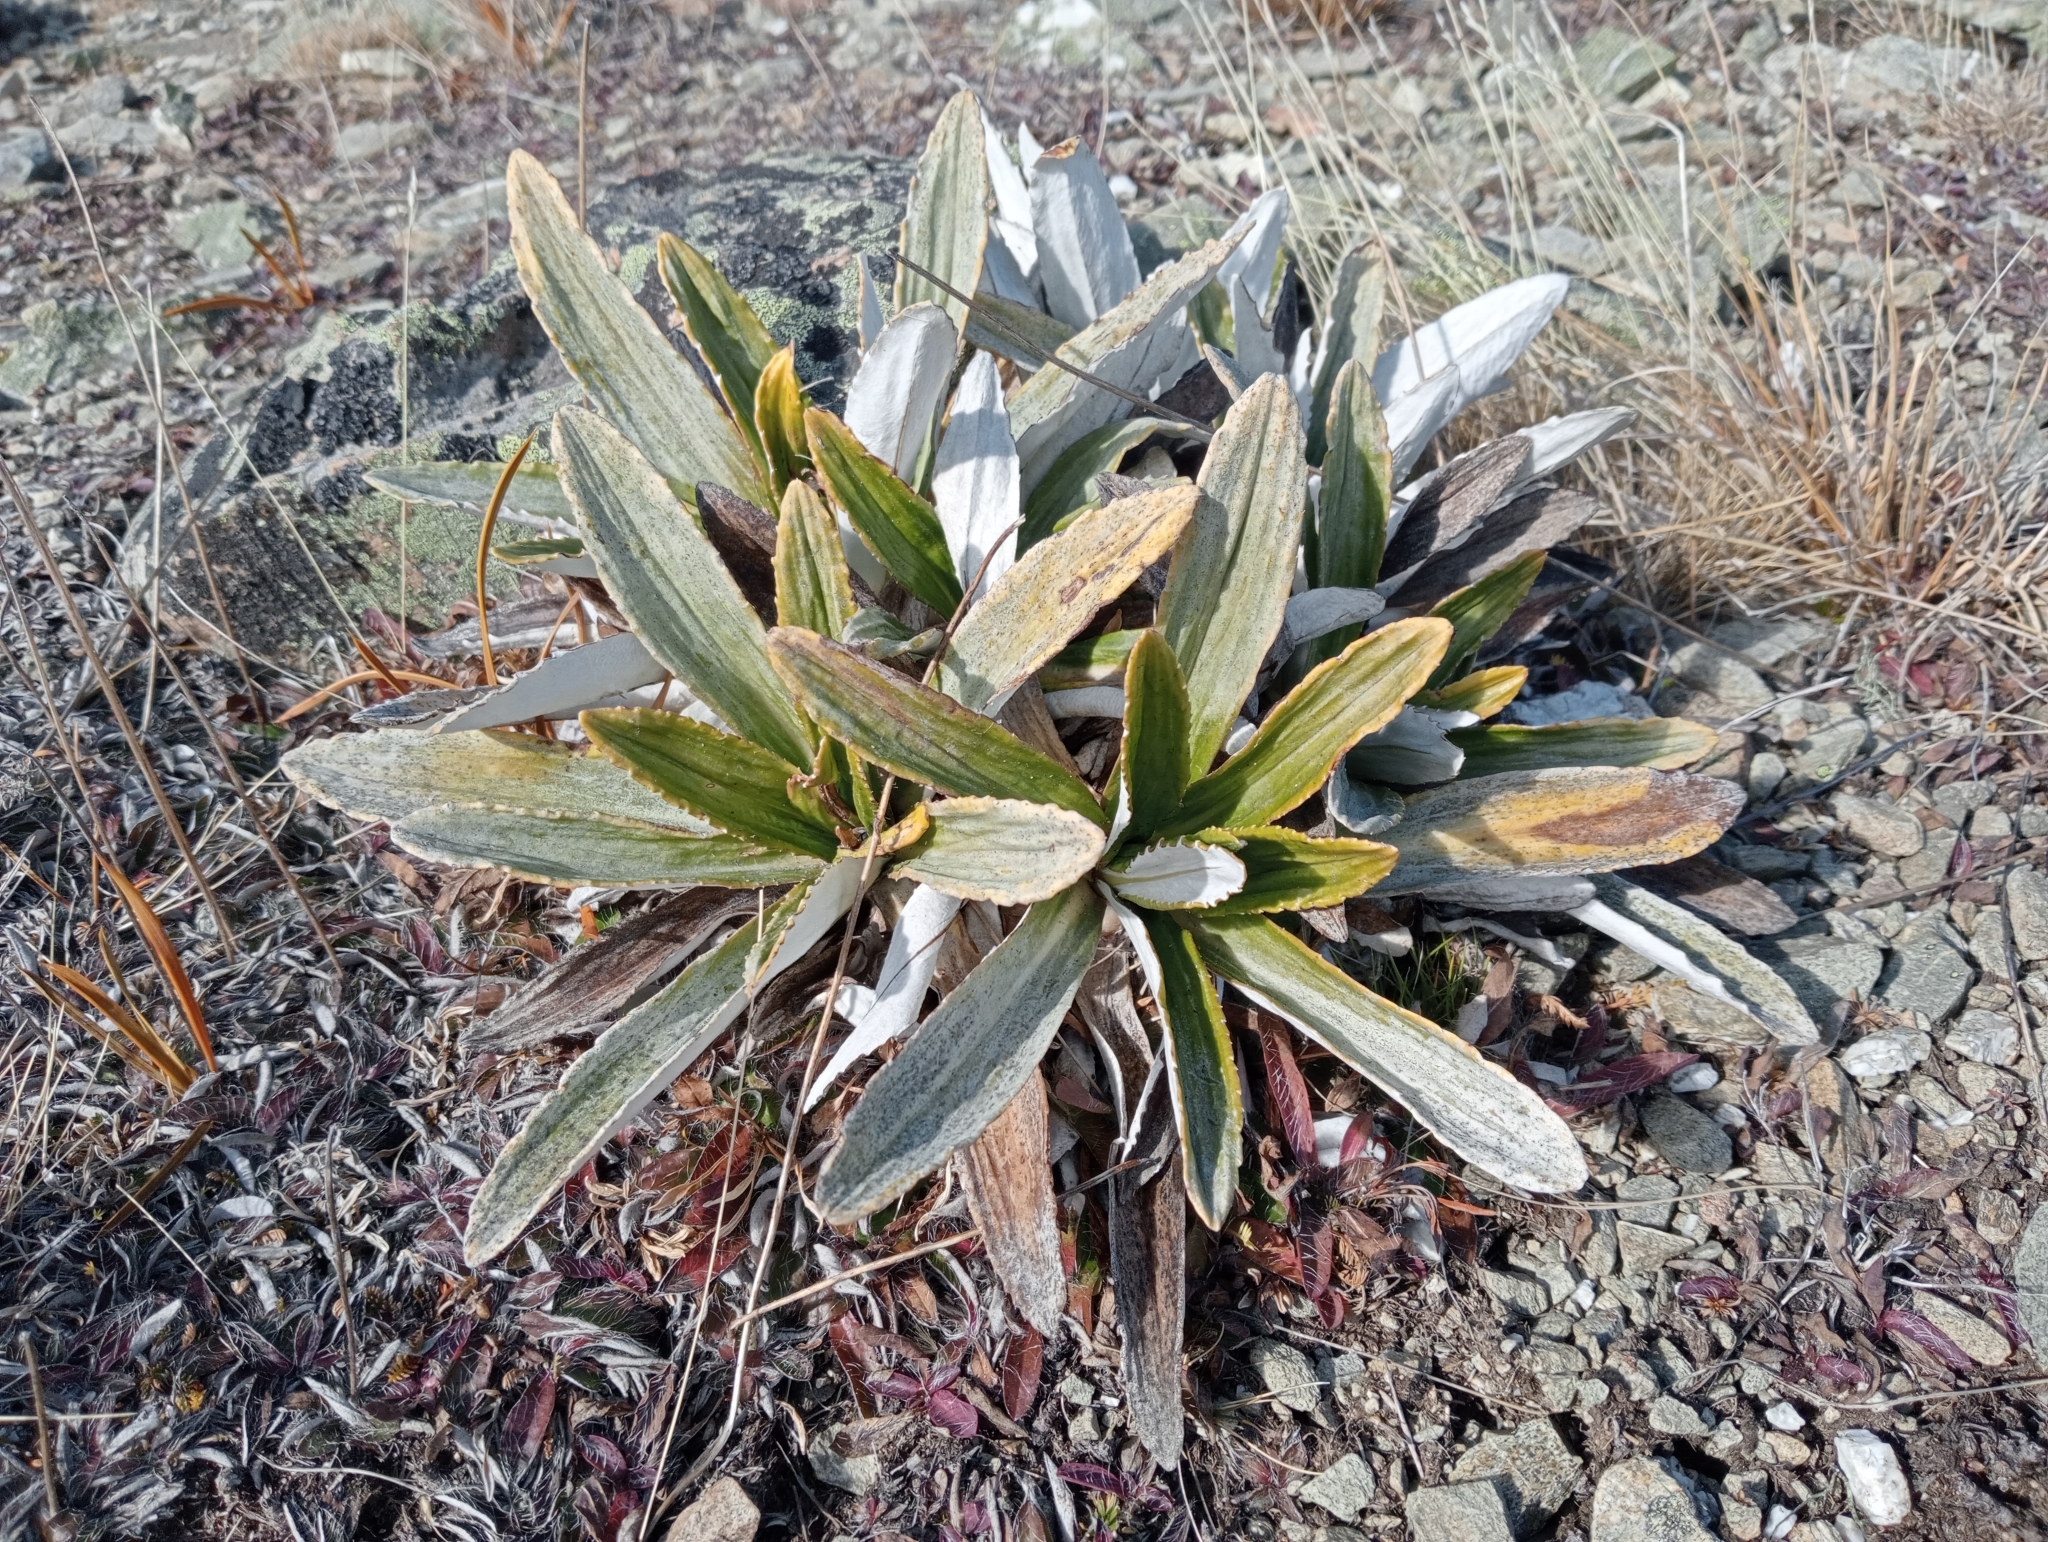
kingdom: Plantae
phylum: Tracheophyta
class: Magnoliopsida
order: Asterales
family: Asteraceae
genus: Celmisia
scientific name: Celmisia densiflora
